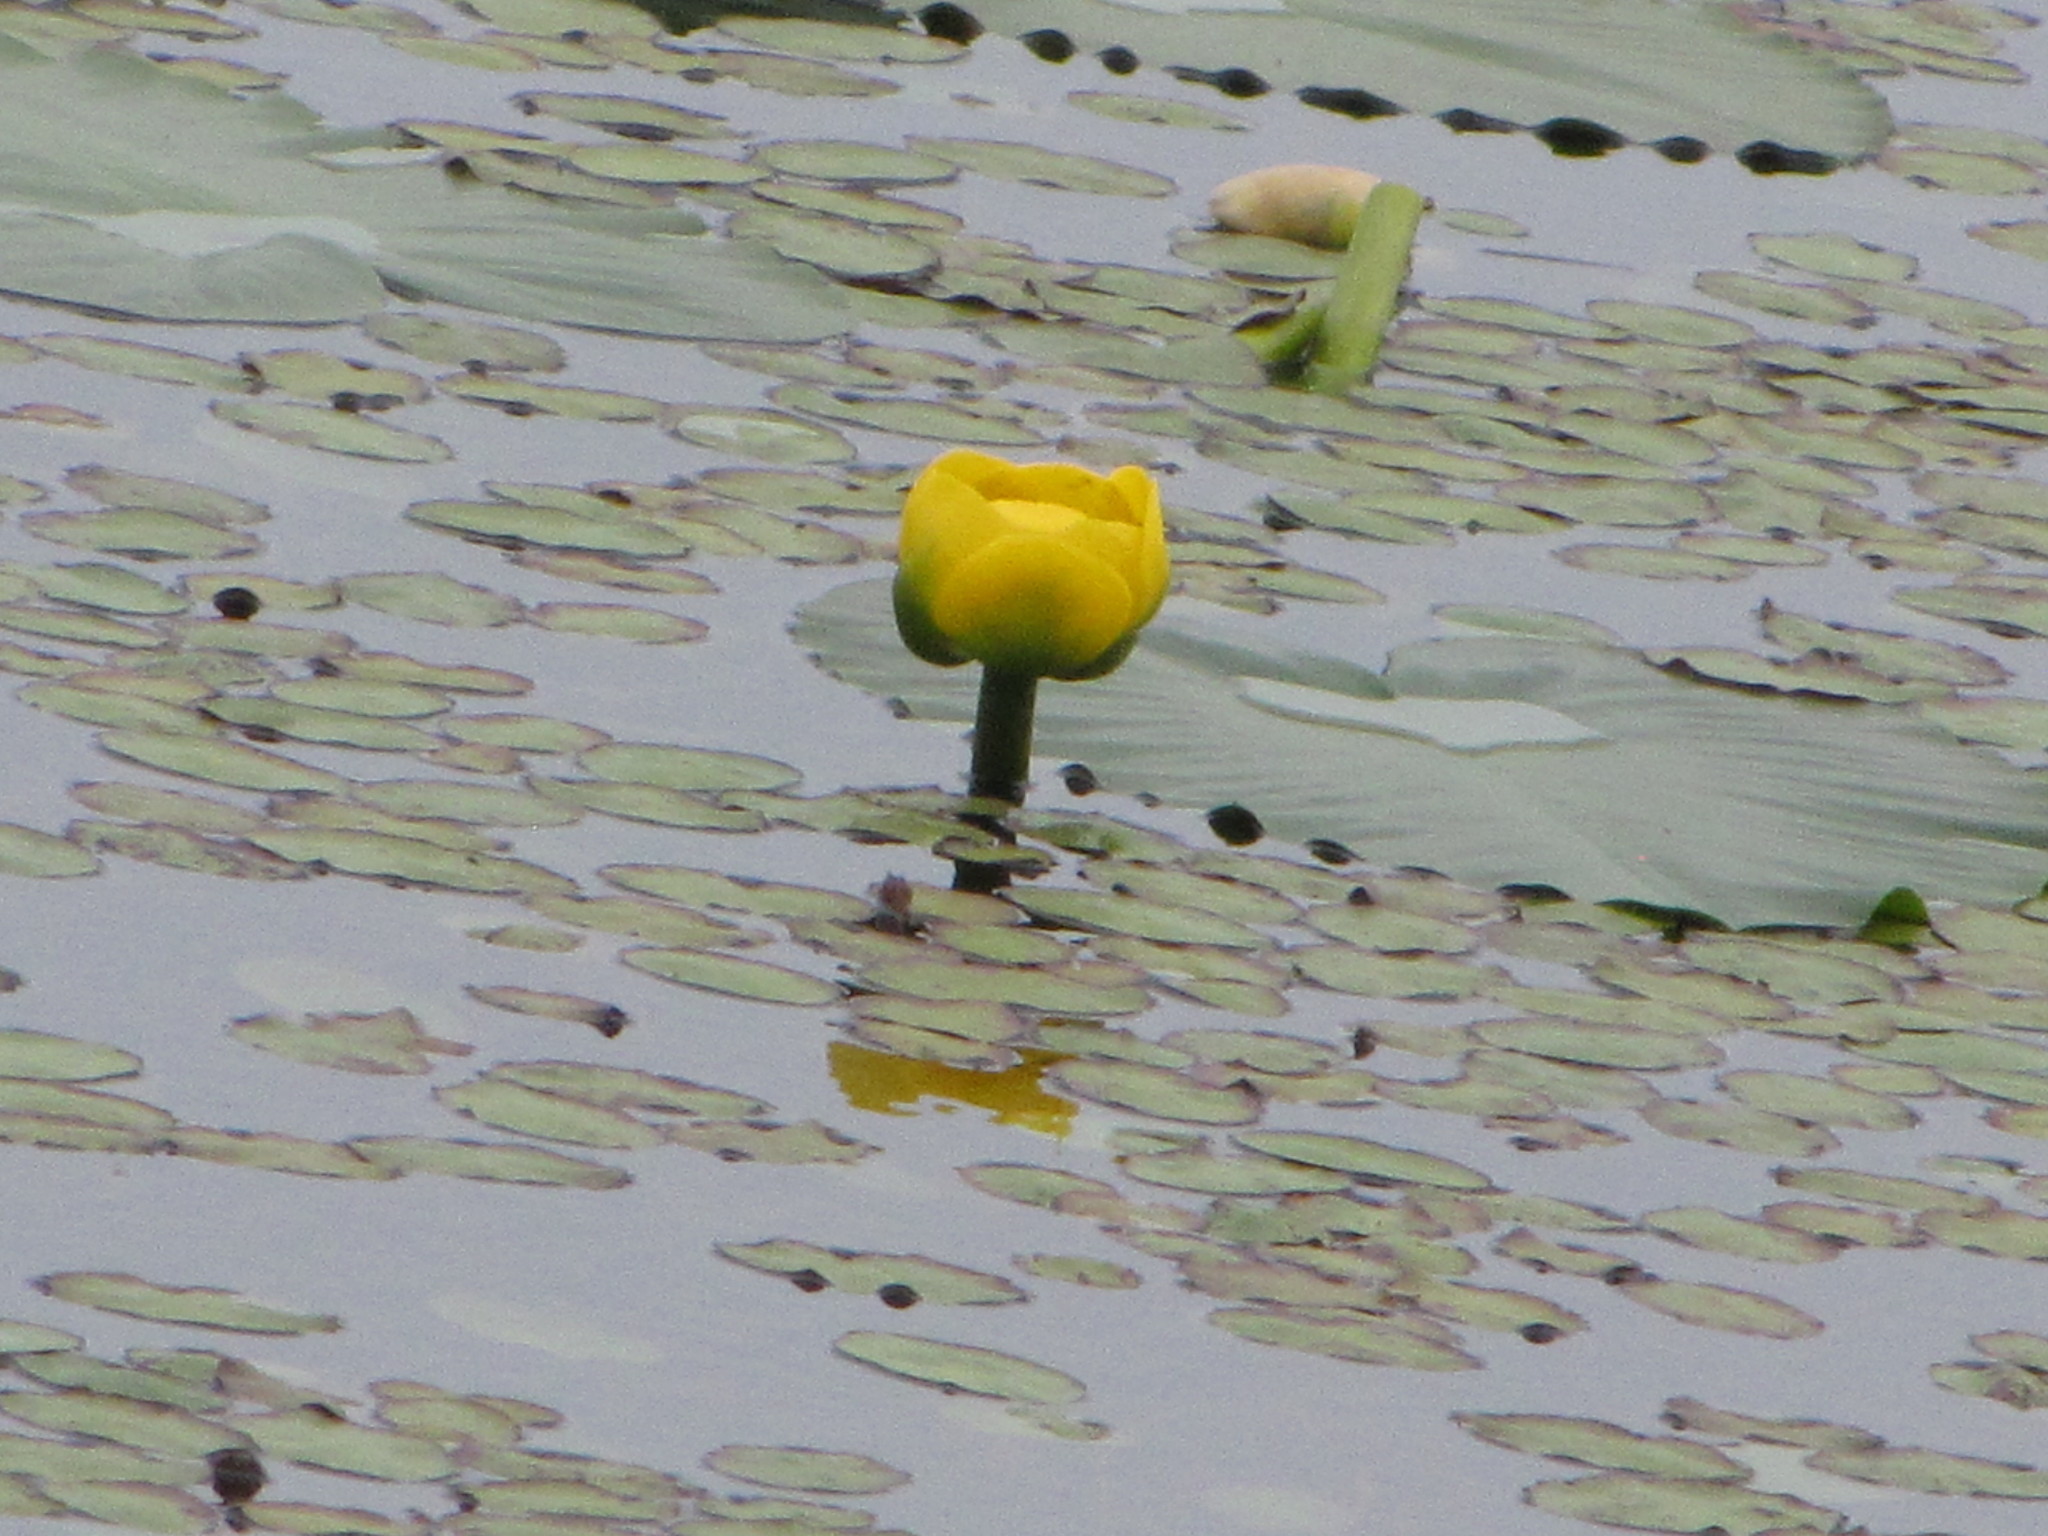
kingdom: Plantae
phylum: Tracheophyta
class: Magnoliopsida
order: Nymphaeales
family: Nymphaeaceae
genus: Nuphar
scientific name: Nuphar polysepala
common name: Rocky mountain cow-lily
